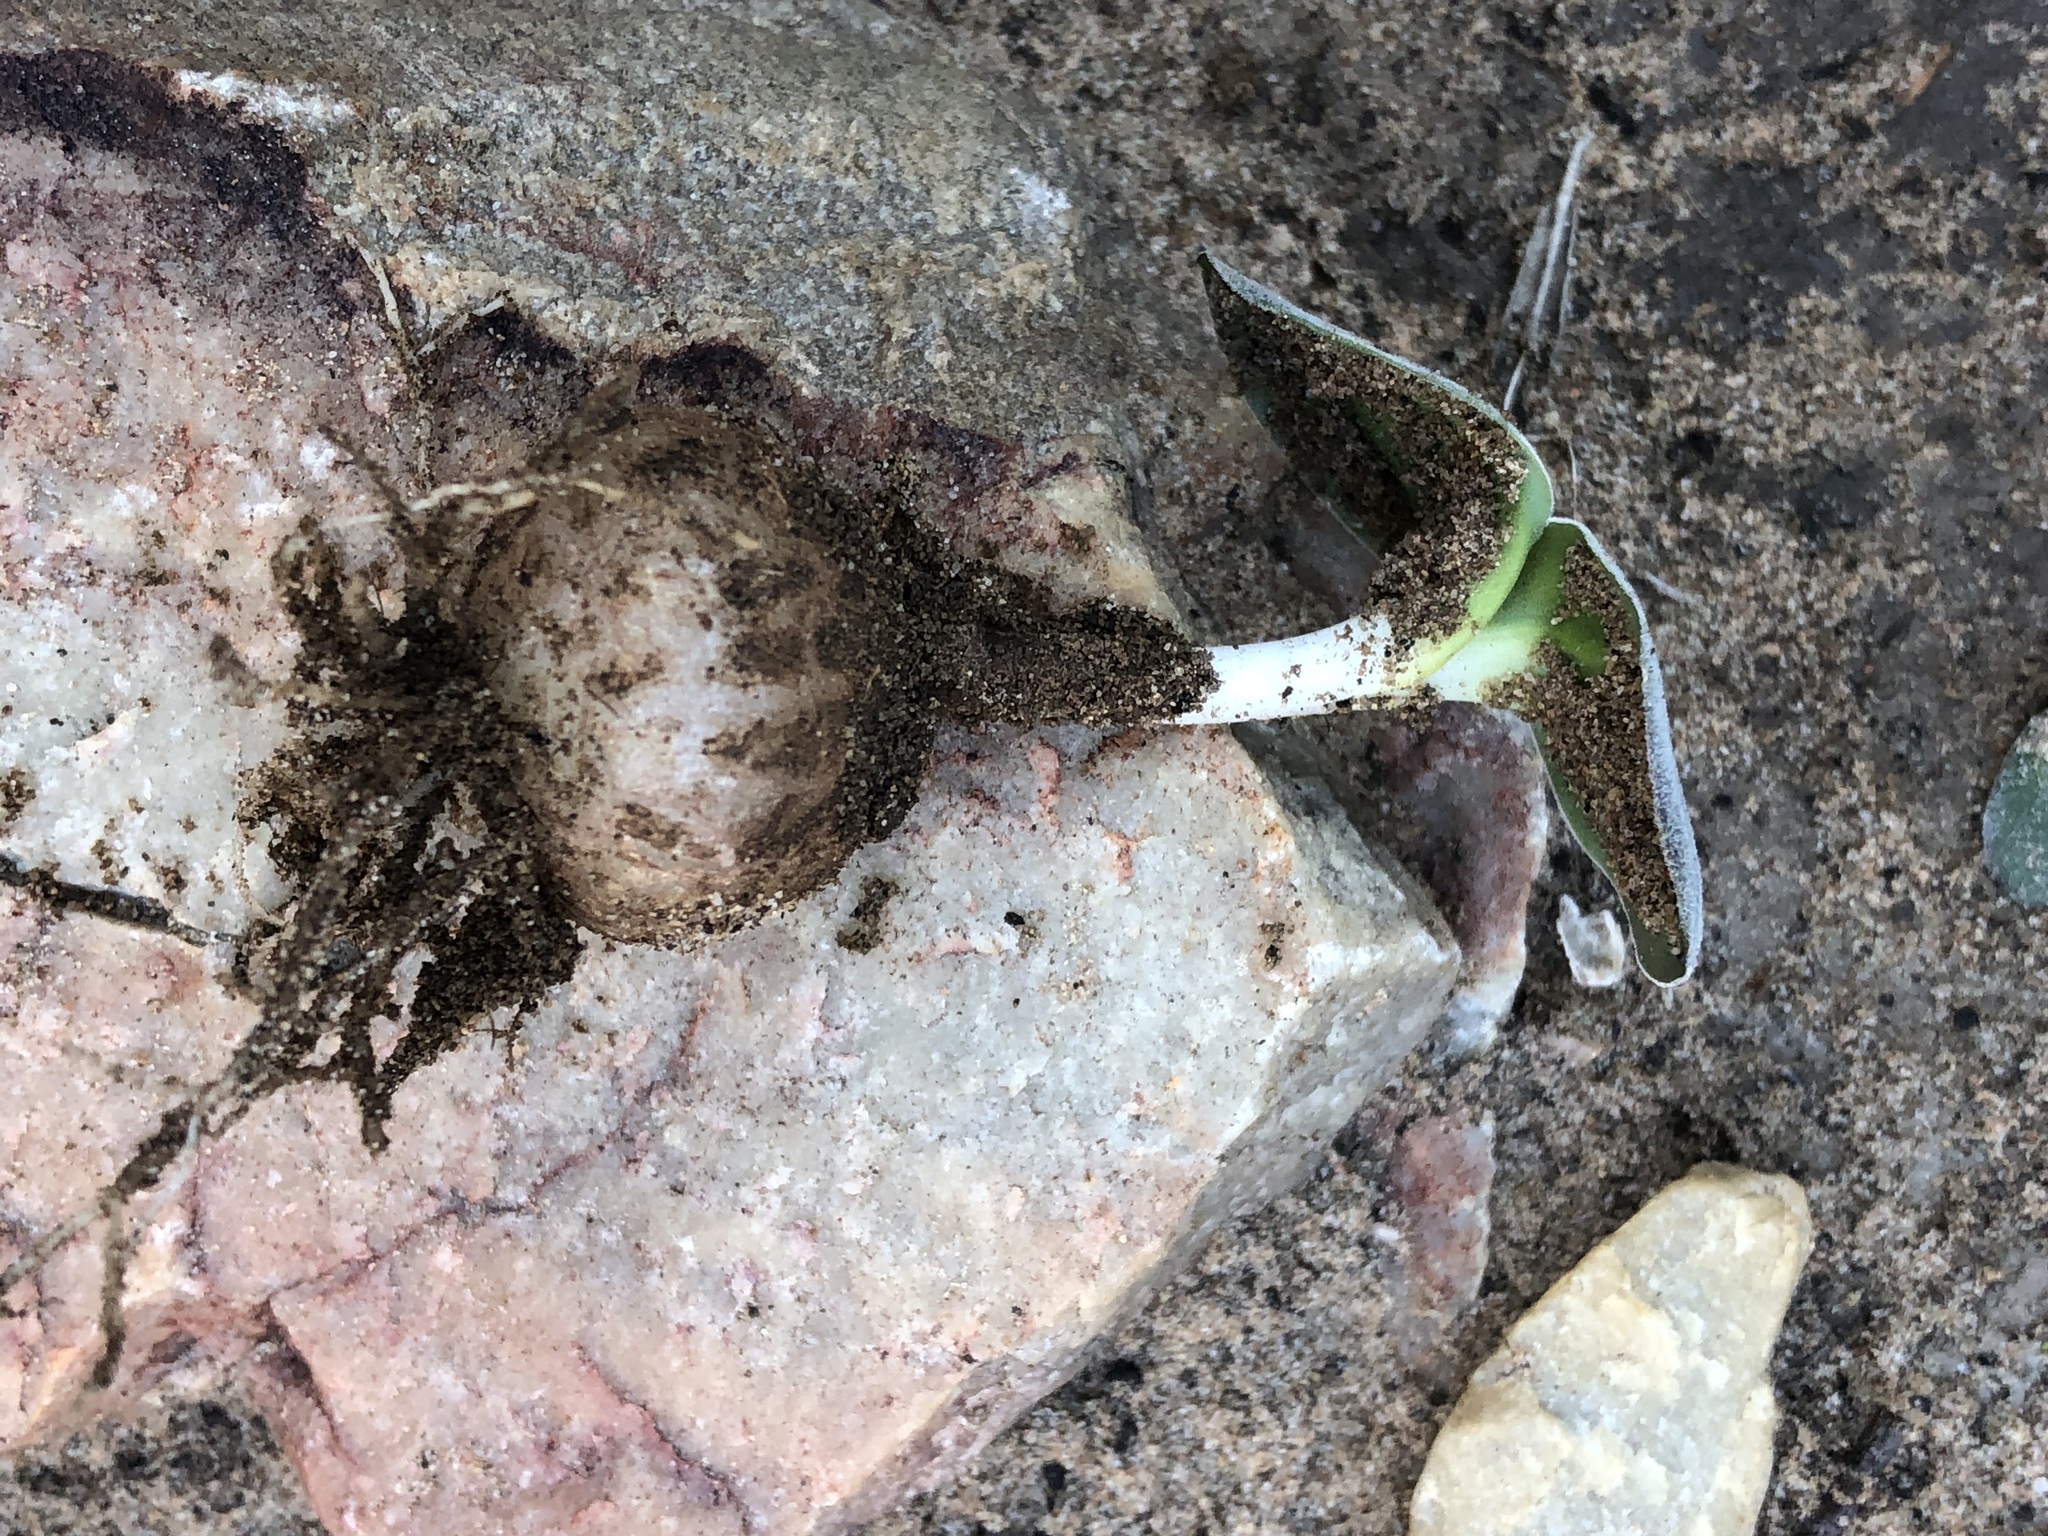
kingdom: Plantae
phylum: Tracheophyta
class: Liliopsida
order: Asparagales
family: Asparagaceae
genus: Drimia
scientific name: Drimia platyphylla
